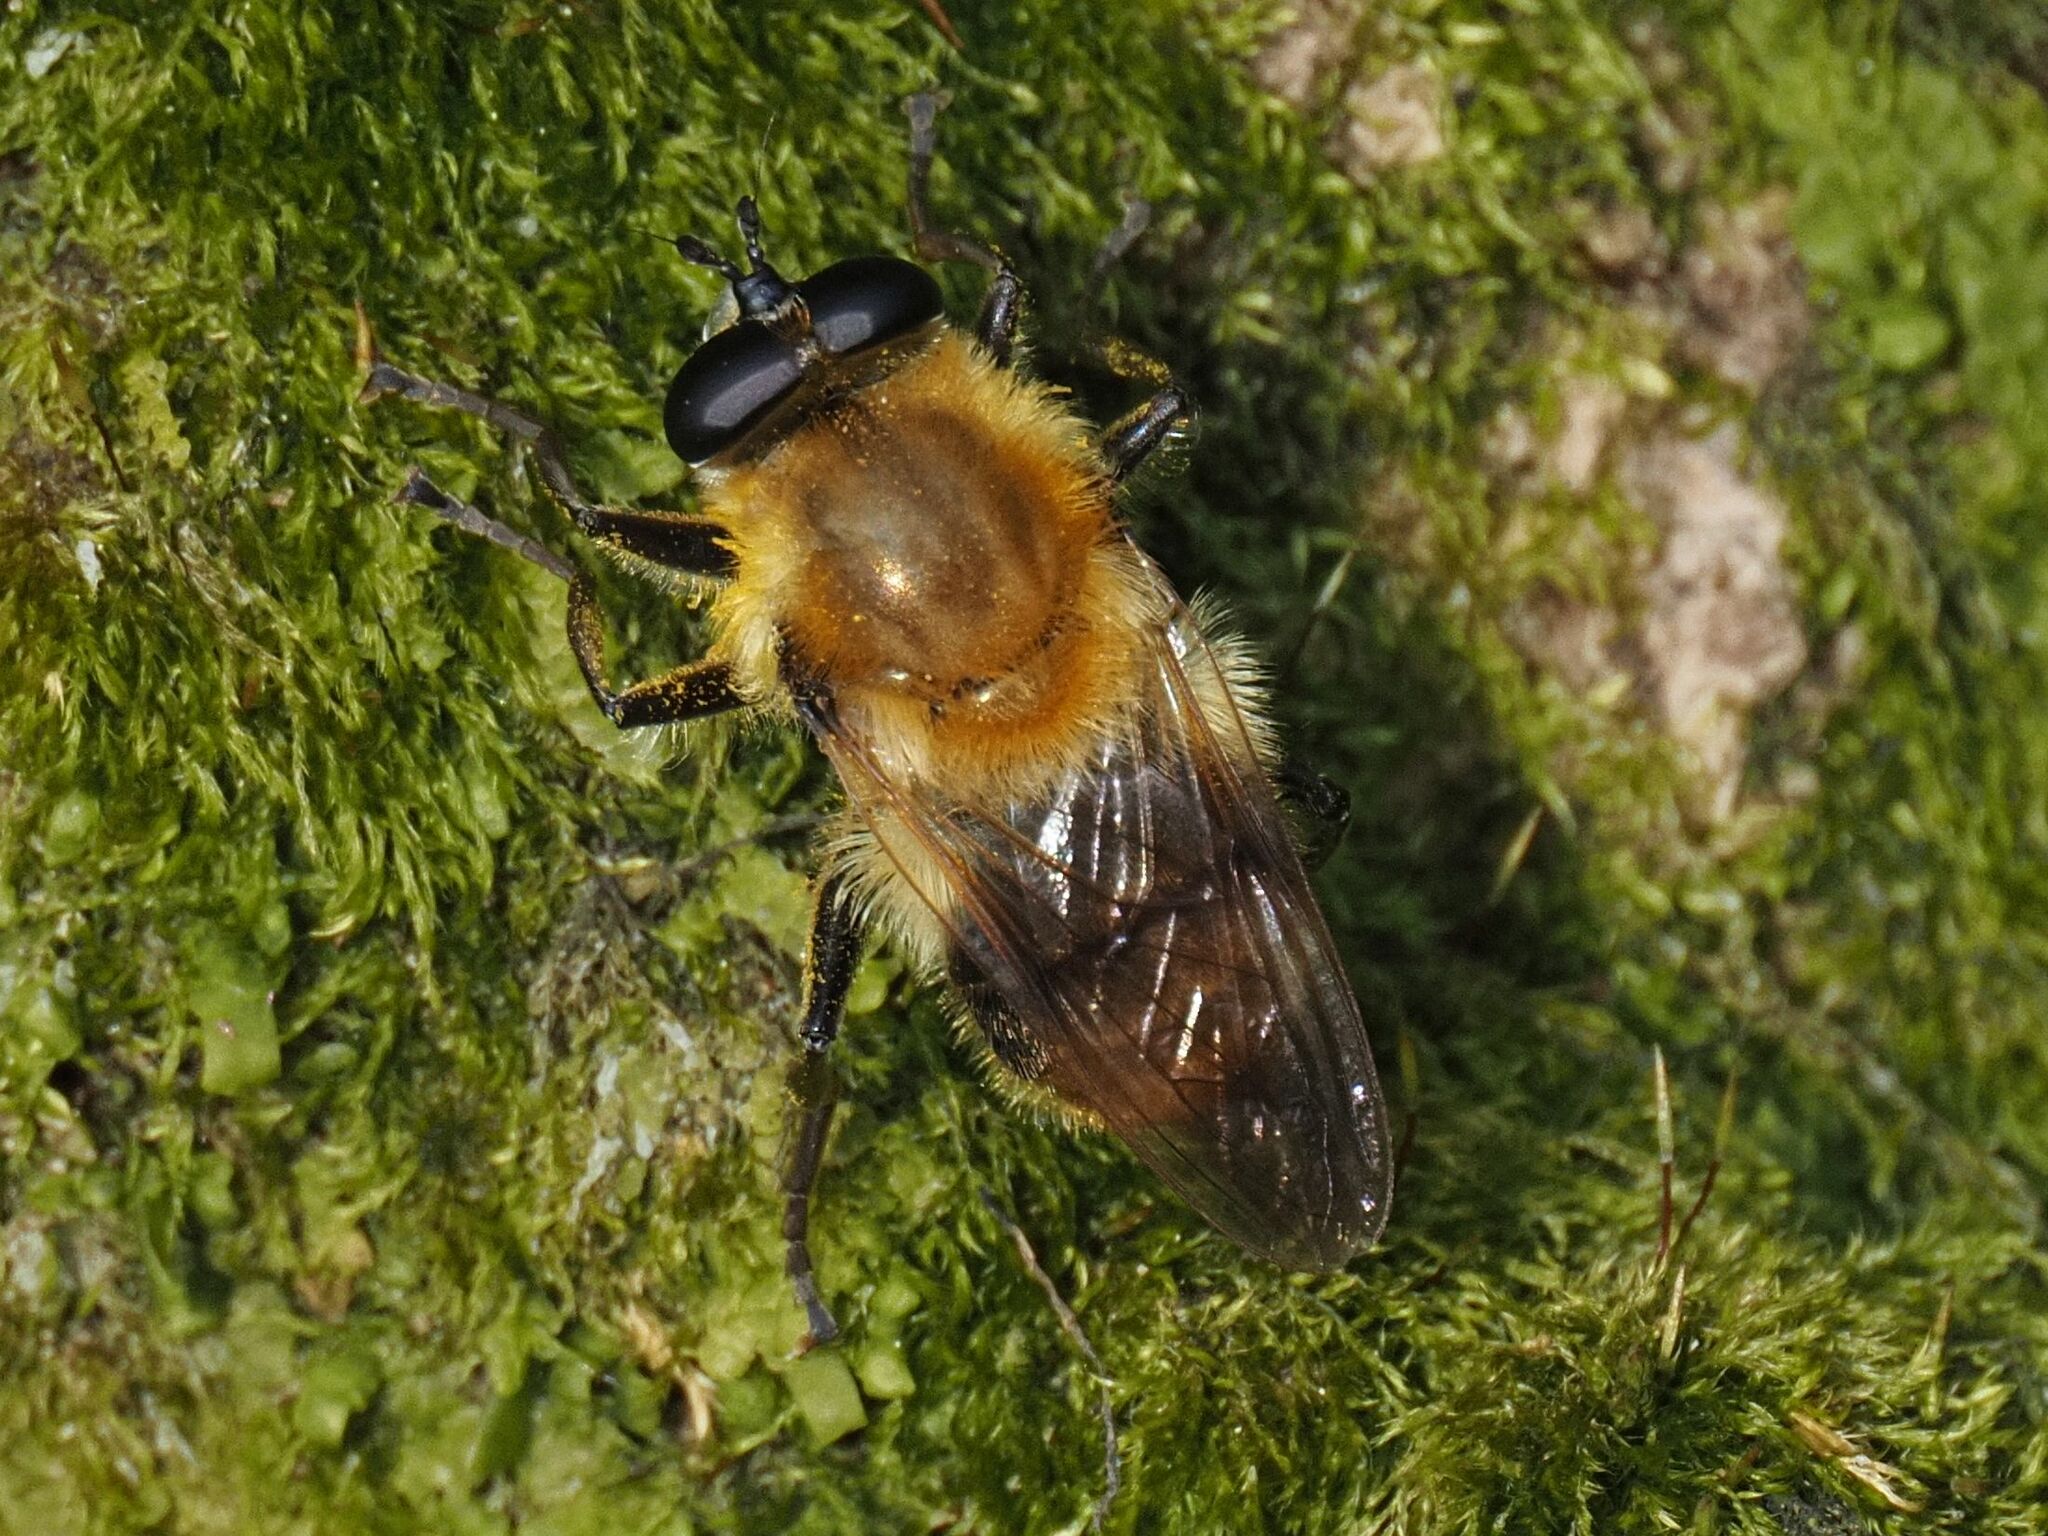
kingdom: Animalia
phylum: Arthropoda
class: Insecta
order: Diptera
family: Syrphidae
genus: Criorhina
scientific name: Criorhina floccosa
